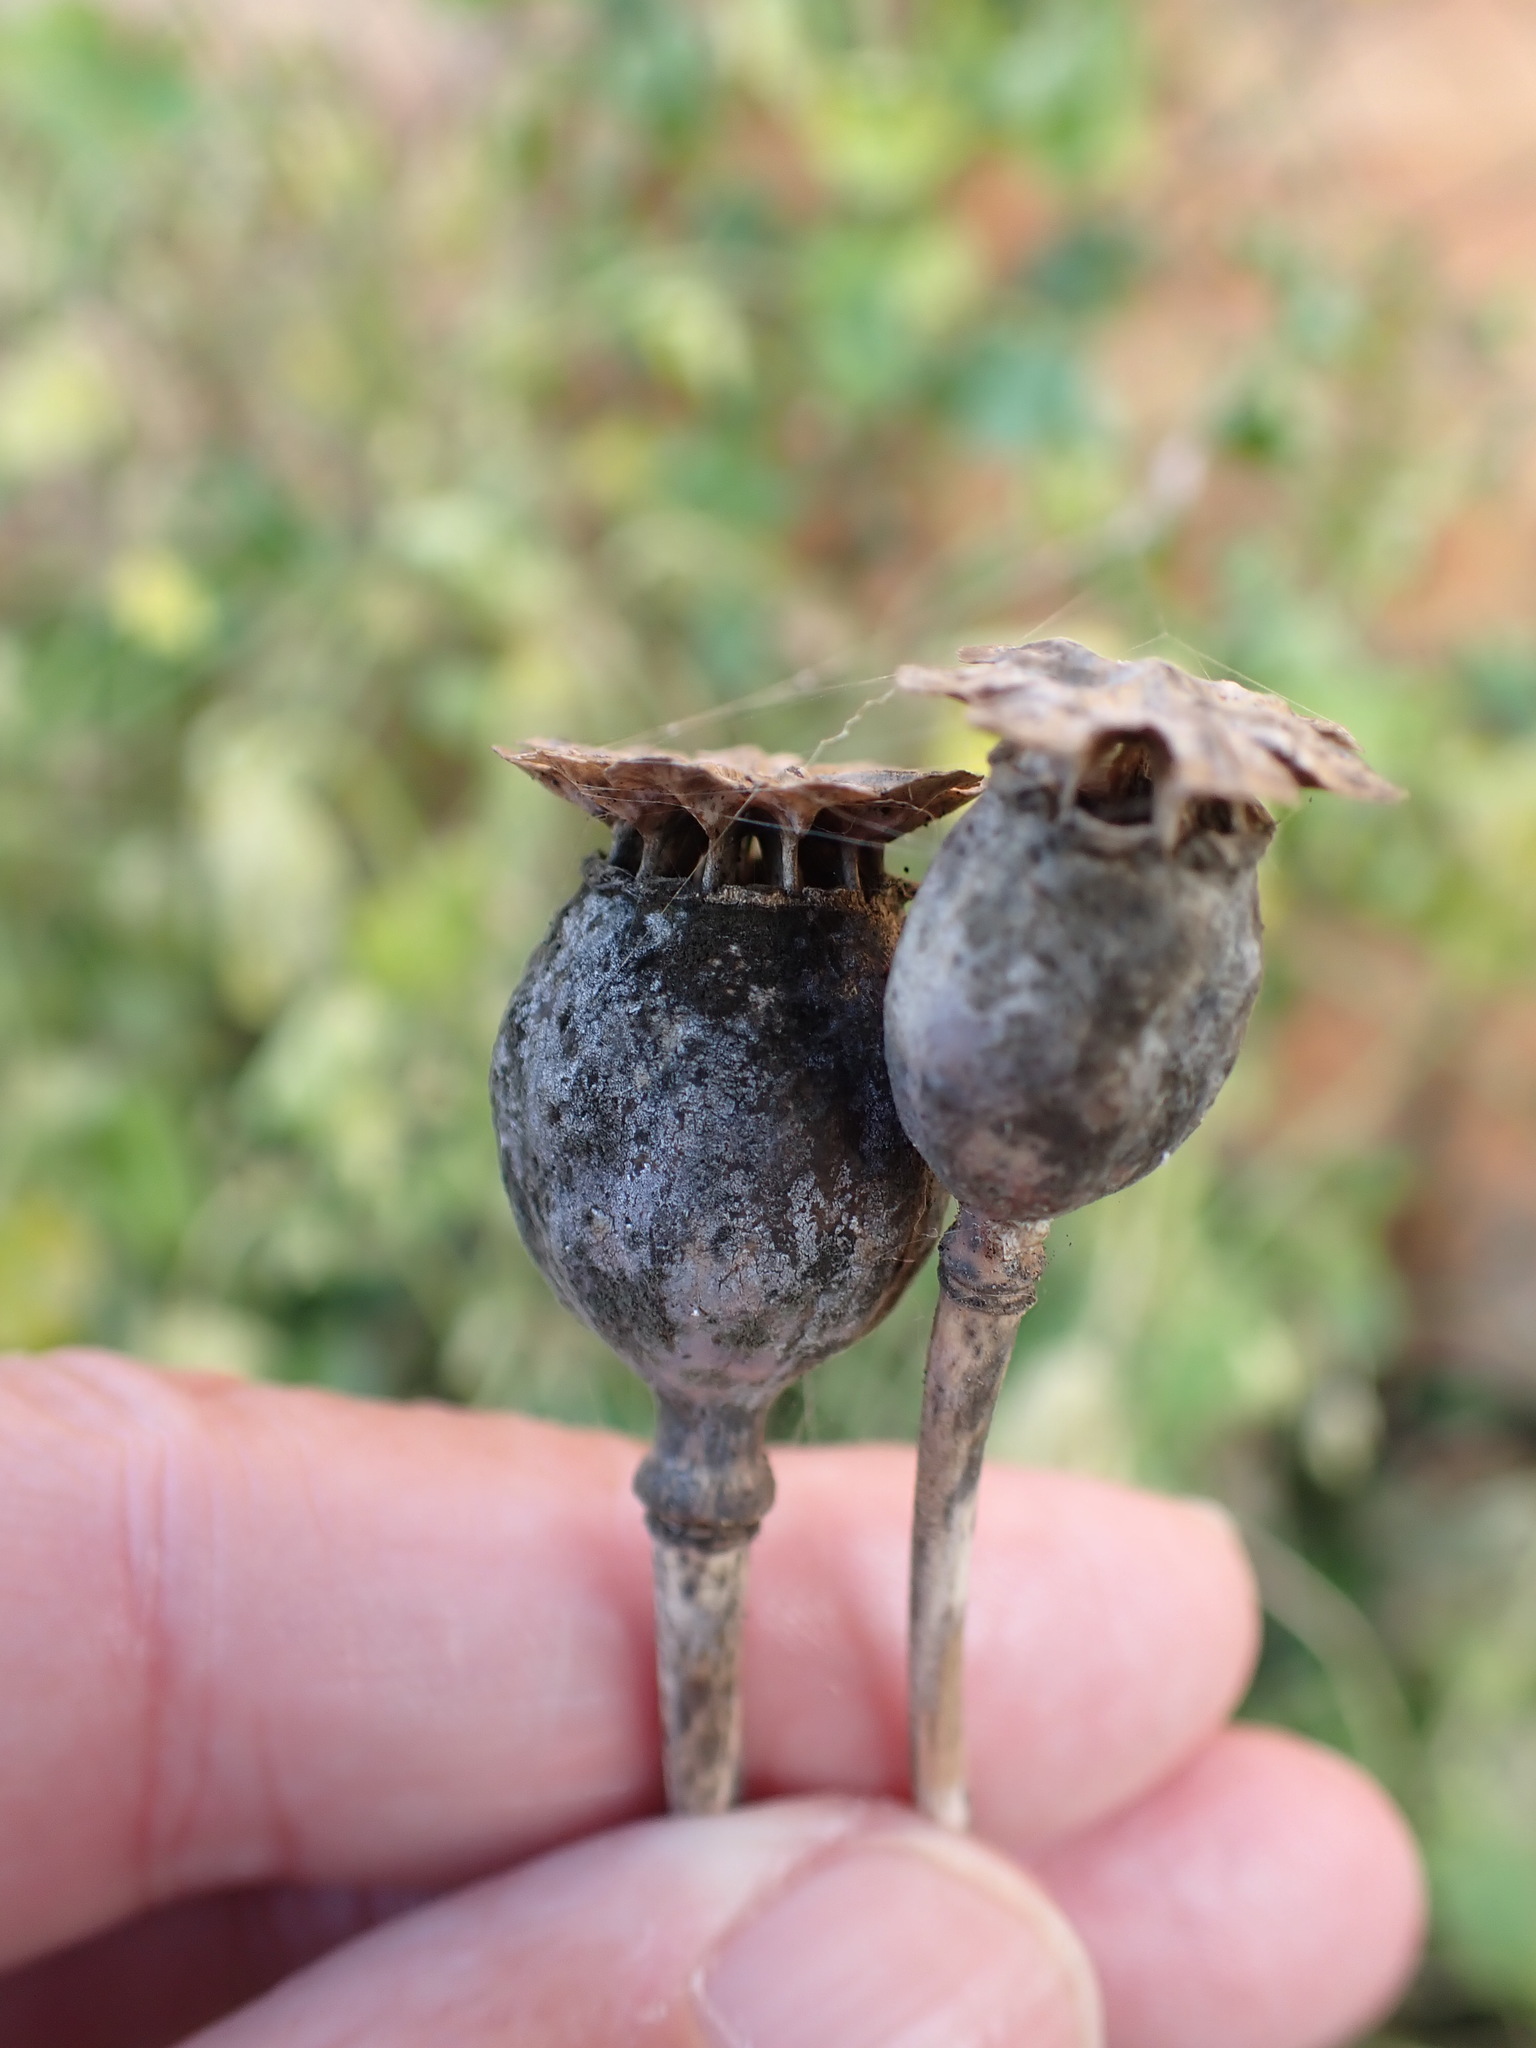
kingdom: Plantae
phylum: Tracheophyta
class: Magnoliopsida
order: Ranunculales
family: Papaveraceae
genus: Papaver
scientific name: Papaver somniferum
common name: Opium poppy
